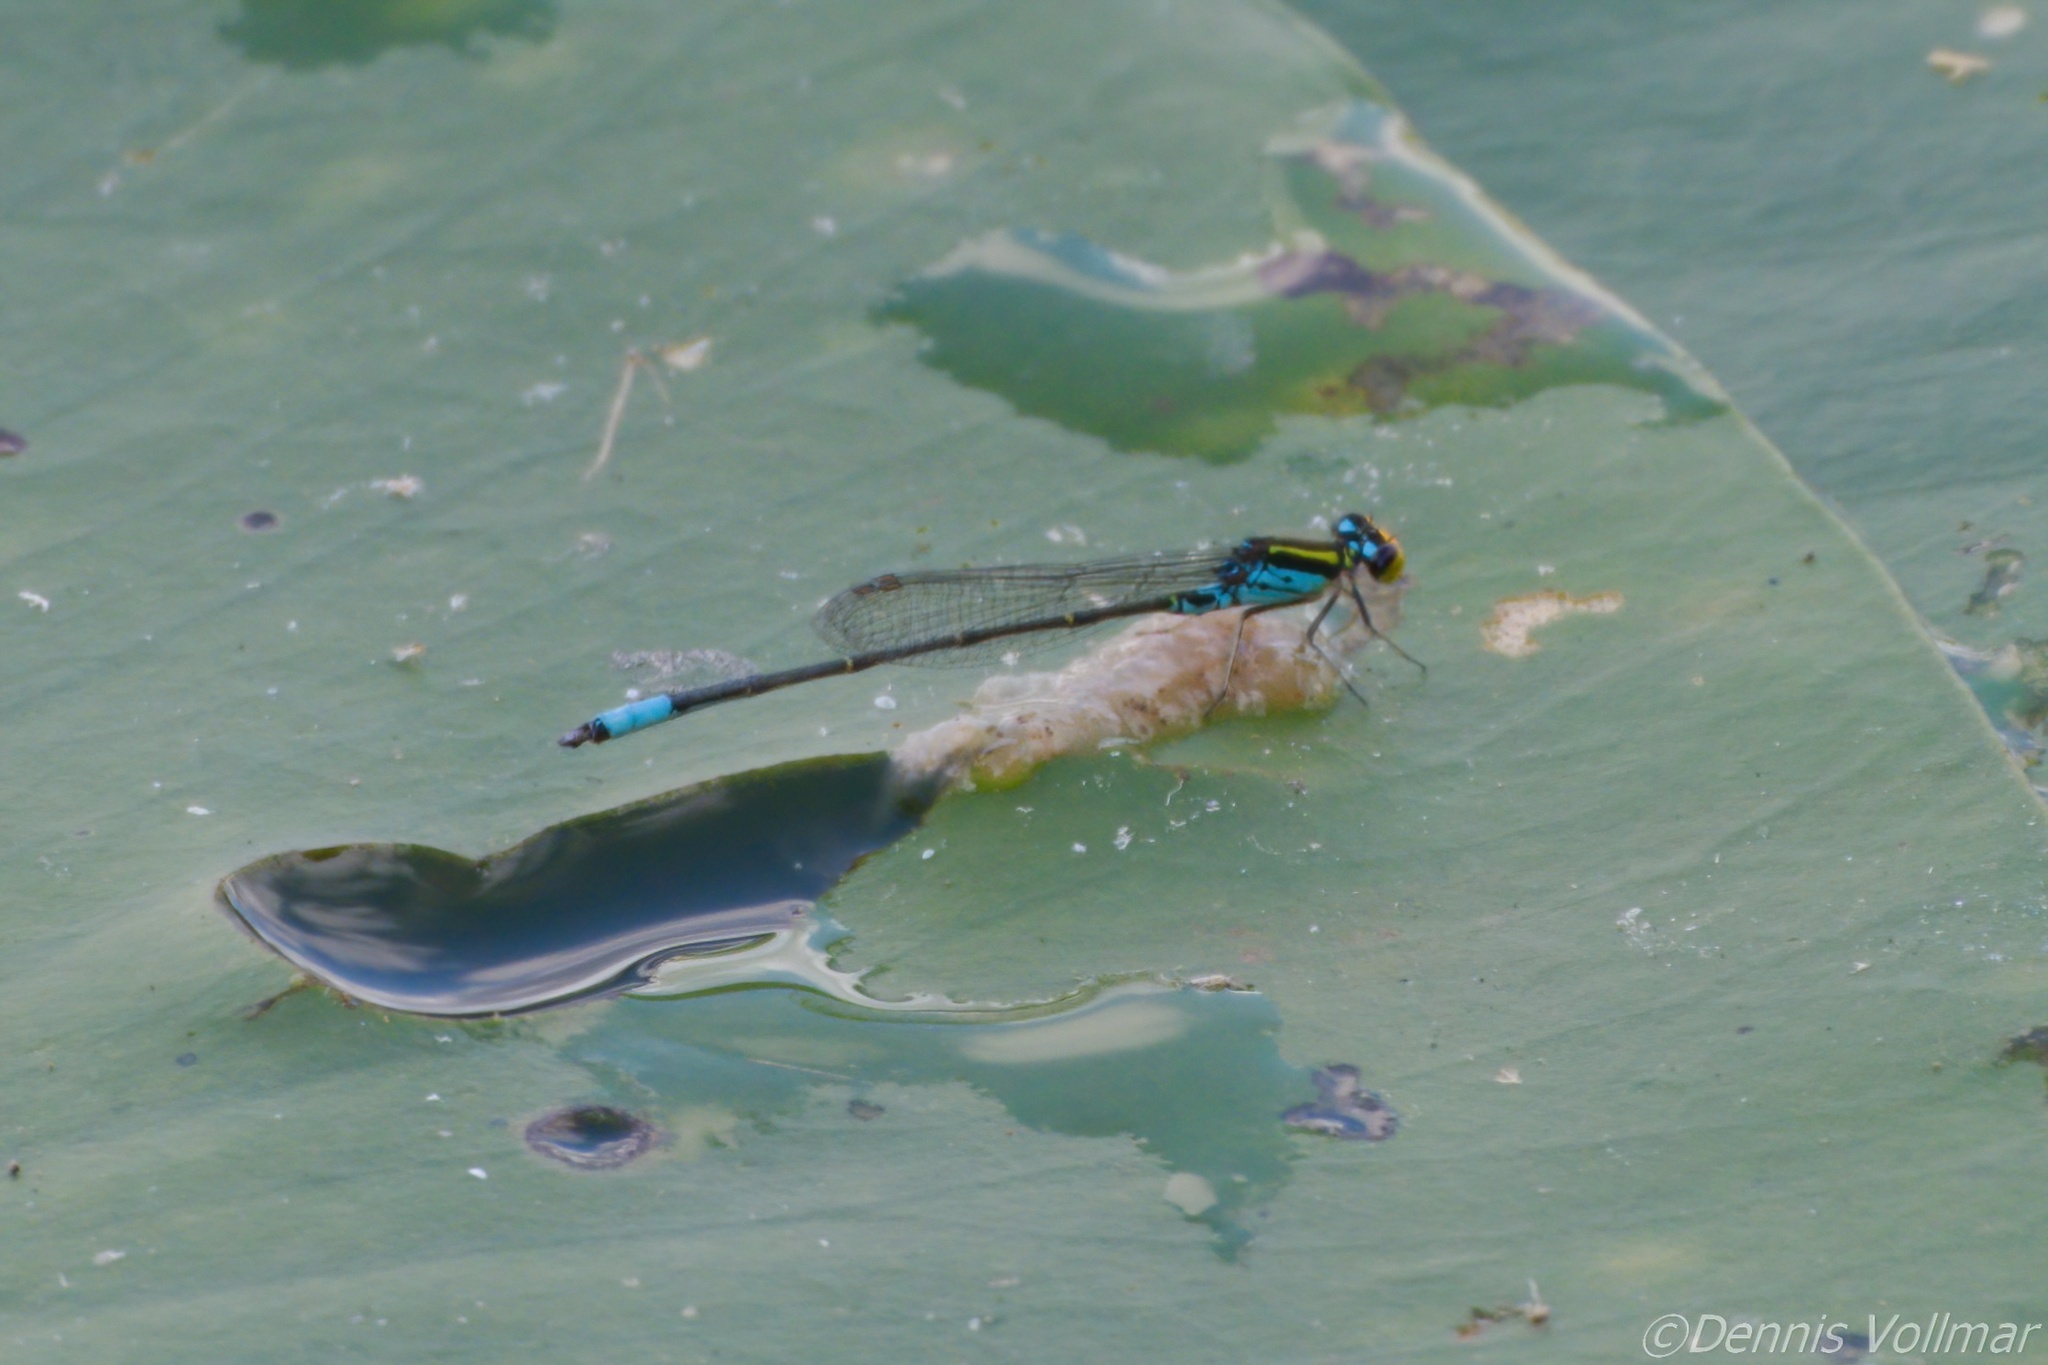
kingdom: Animalia
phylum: Arthropoda
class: Insecta
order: Odonata
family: Coenagrionidae
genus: Neoerythromma
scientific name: Neoerythromma cultellatum
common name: Caribbean yellowface
